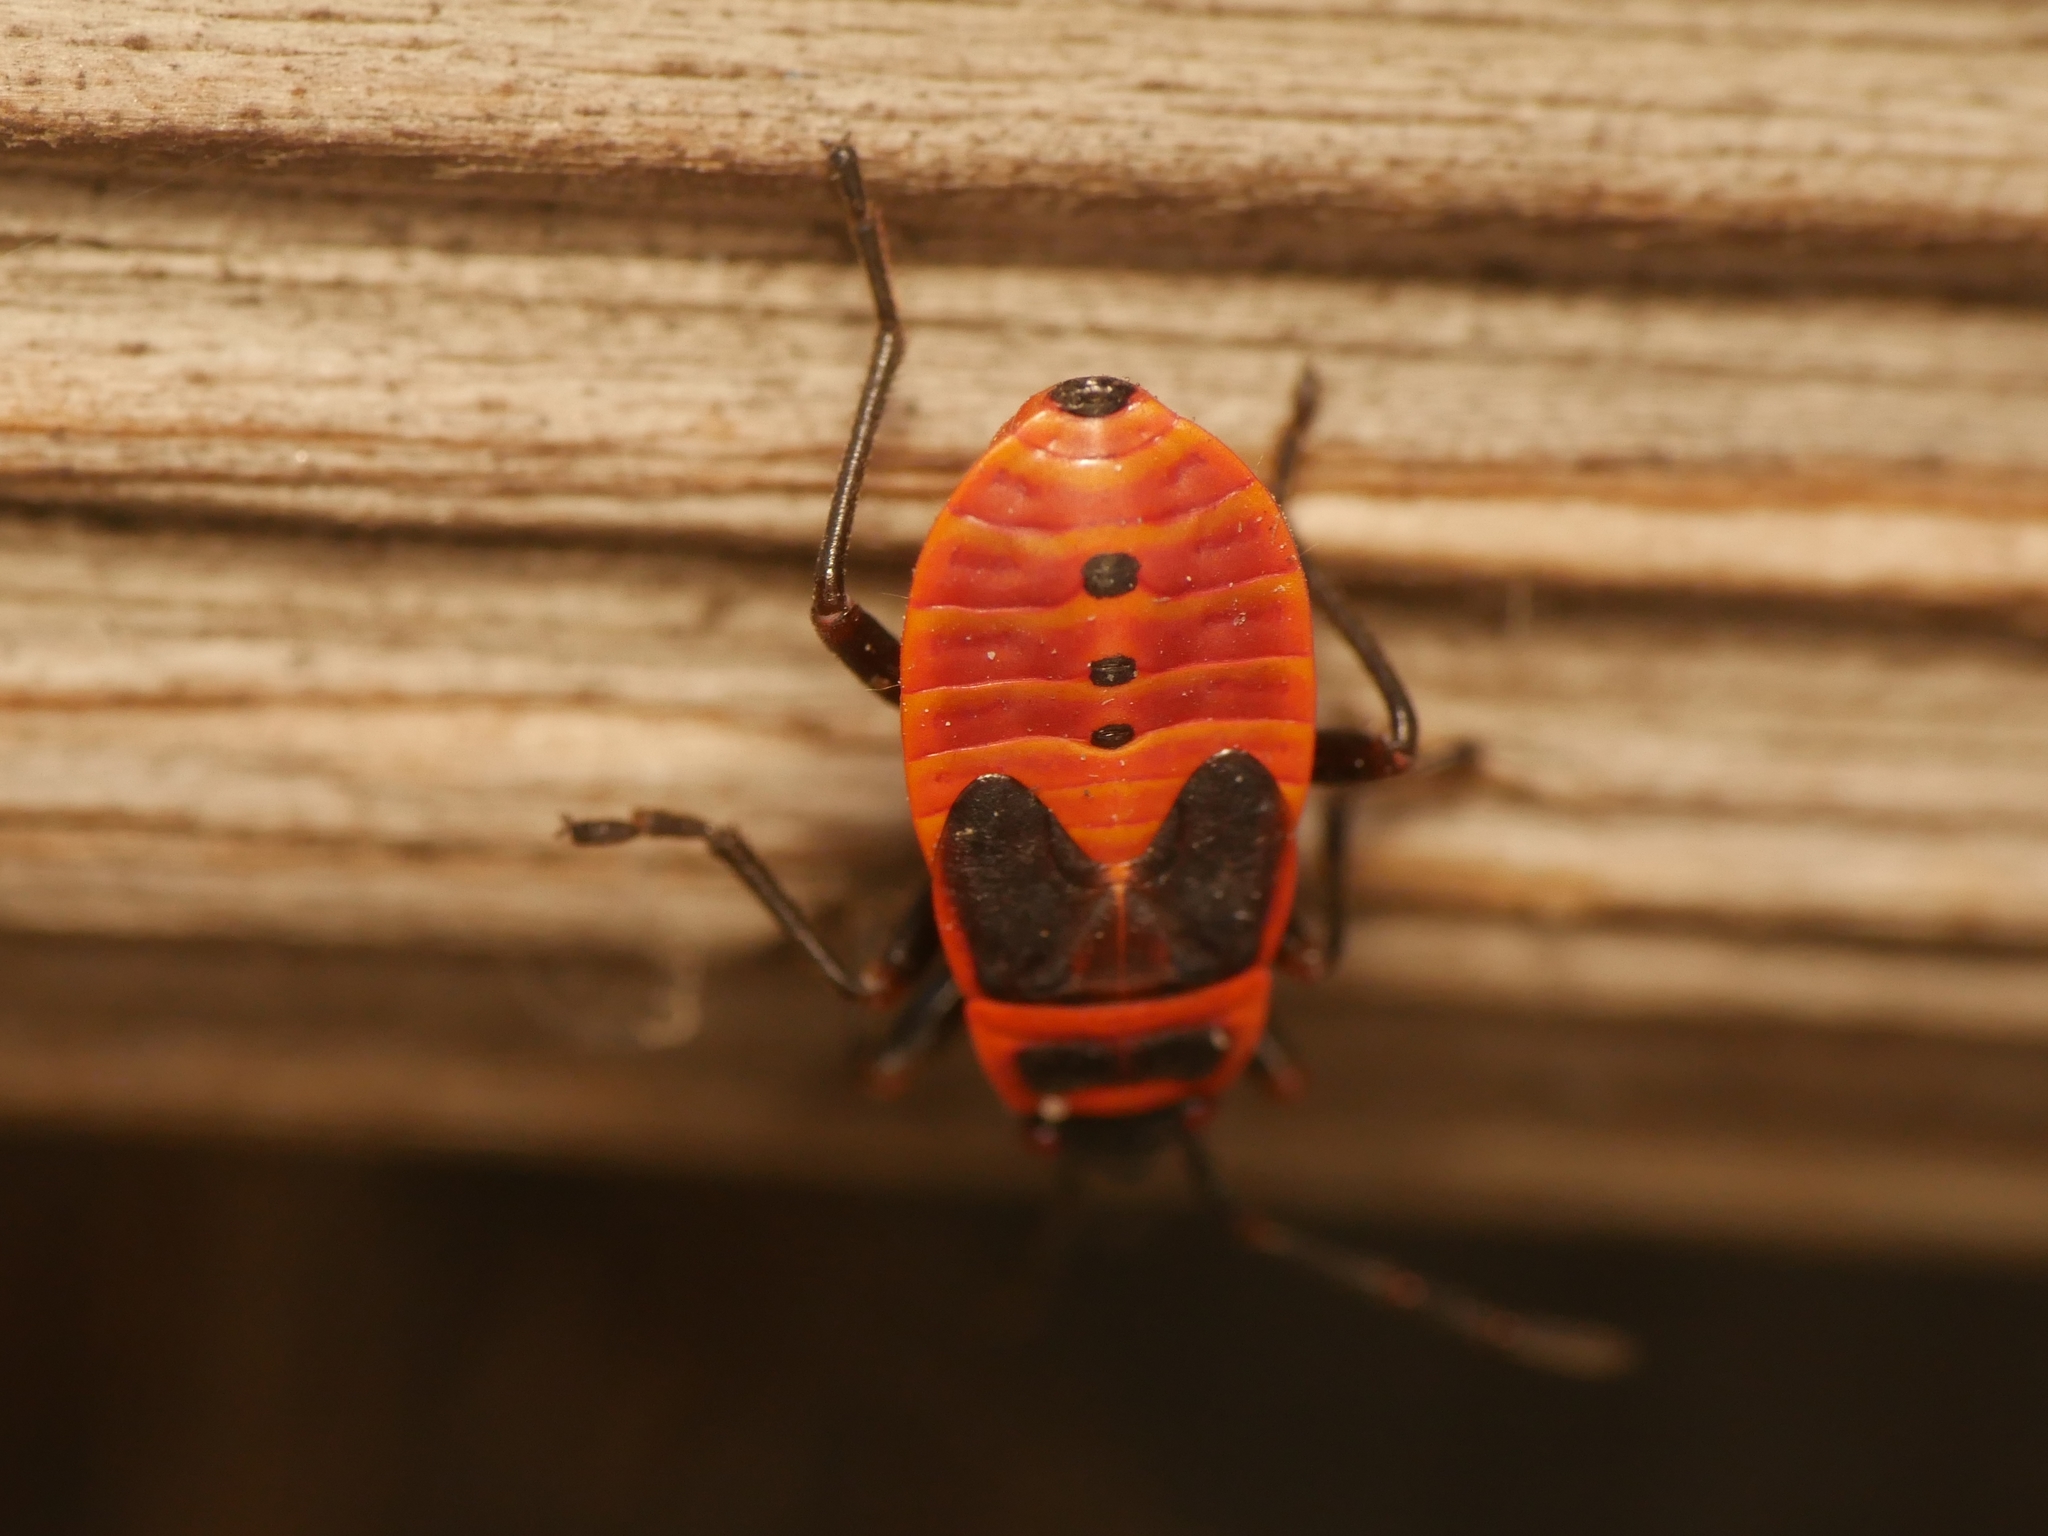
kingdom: Animalia
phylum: Arthropoda
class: Insecta
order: Hemiptera
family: Pyrrhocoridae
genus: Pyrrhocoris
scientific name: Pyrrhocoris apterus
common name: Firebug
